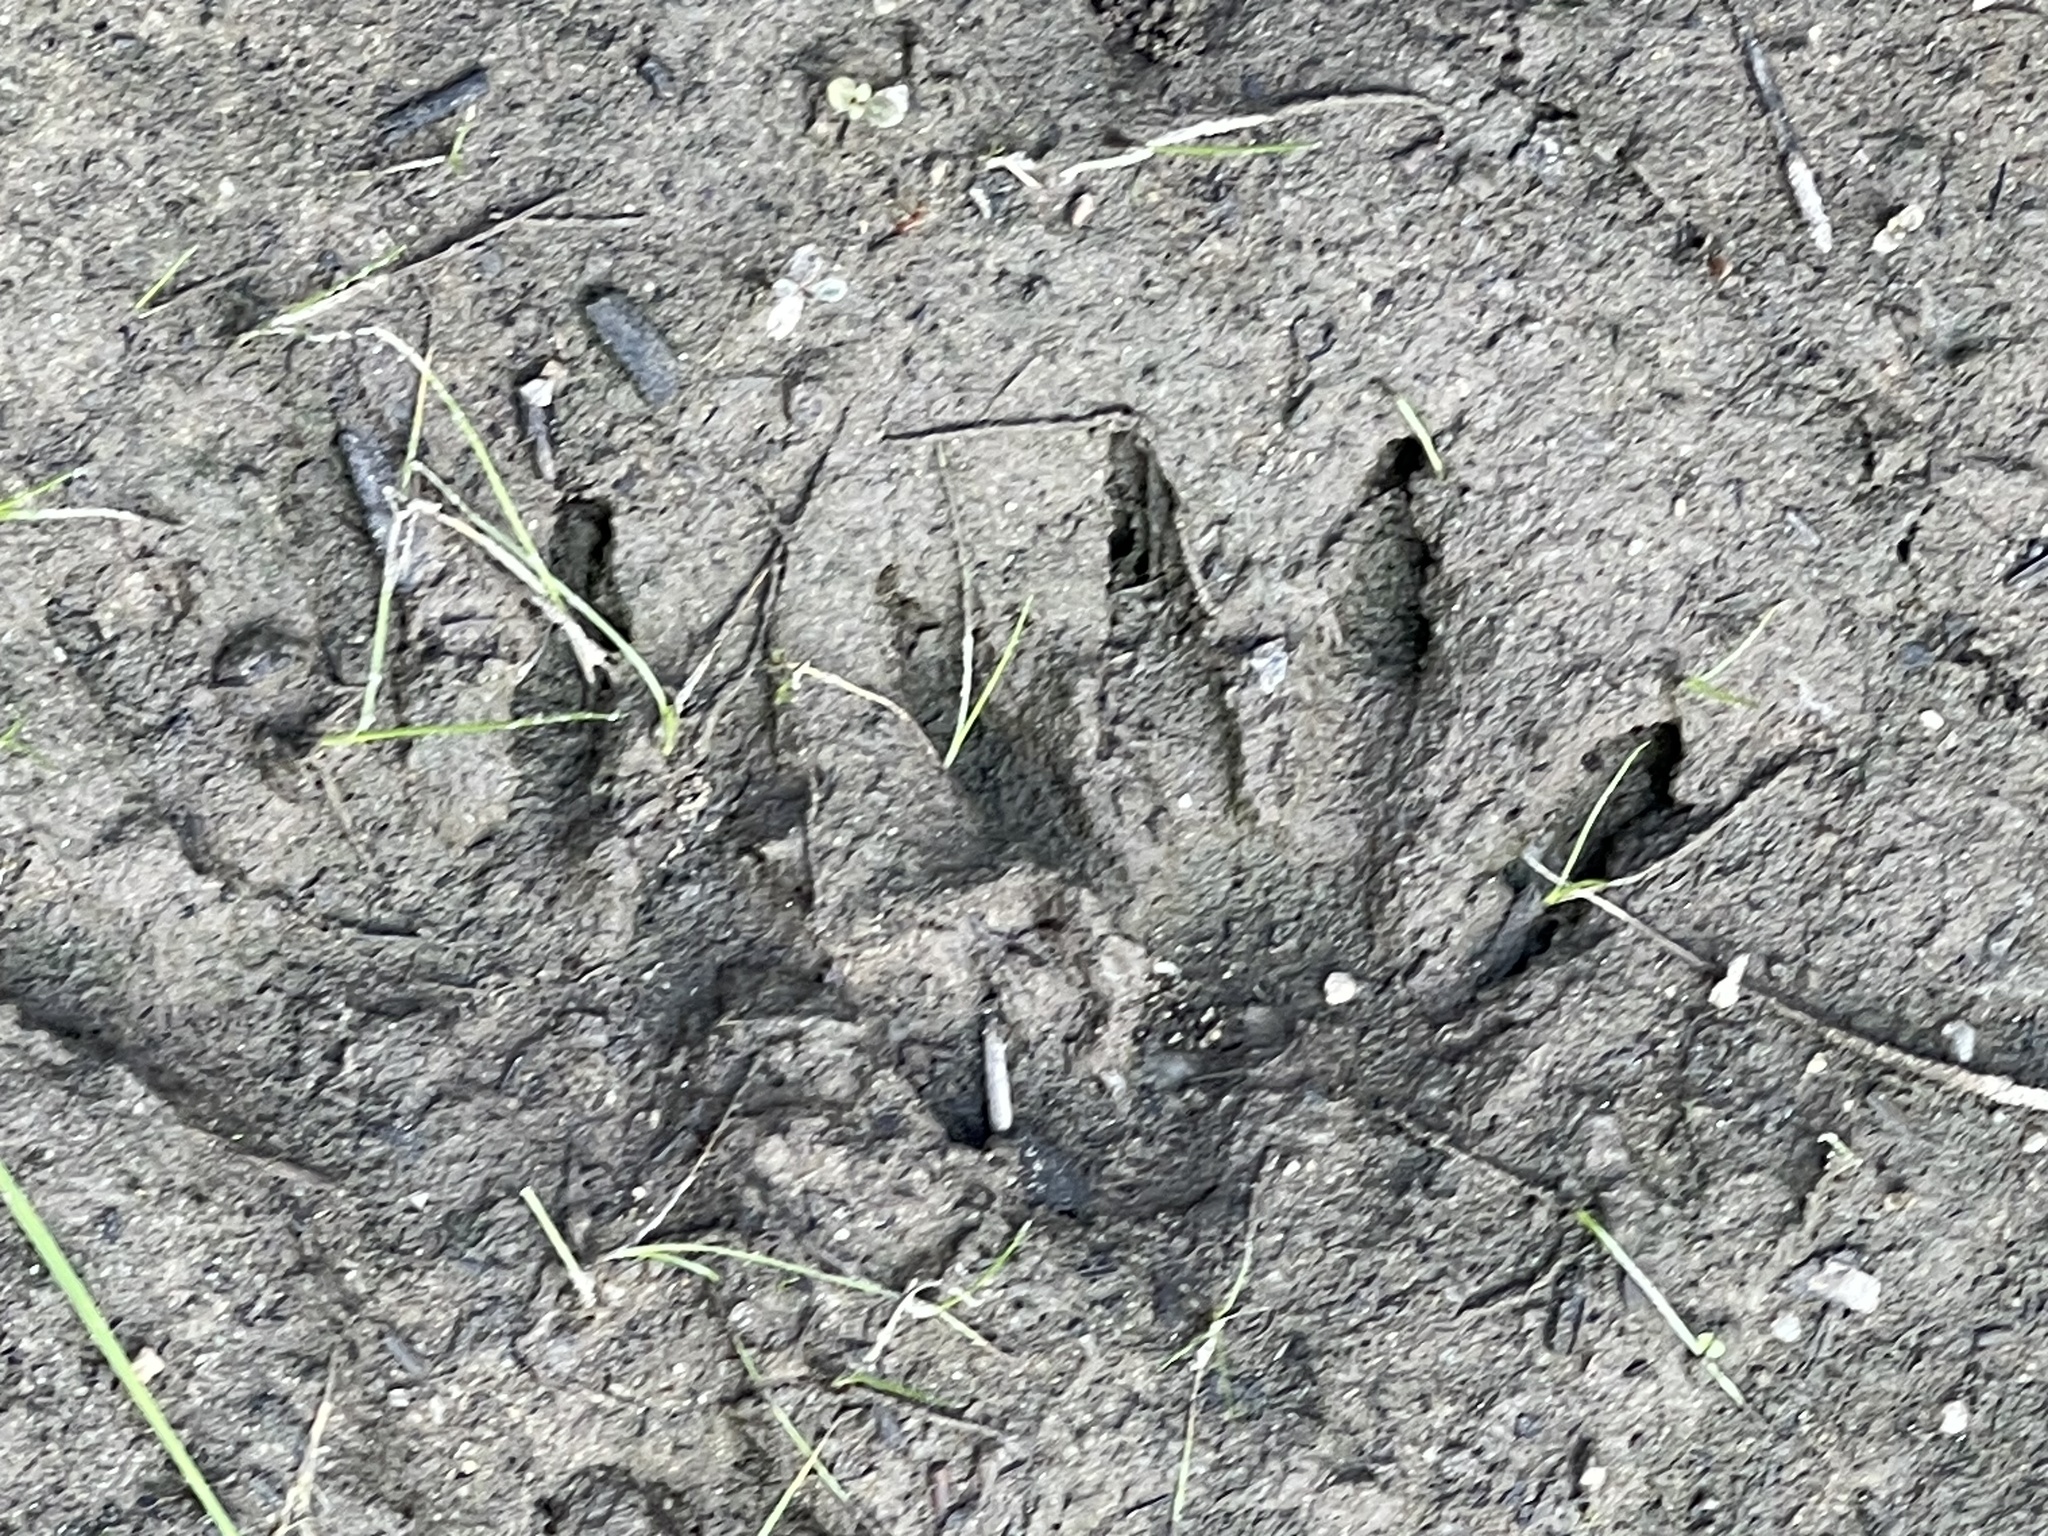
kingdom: Animalia
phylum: Chordata
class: Mammalia
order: Carnivora
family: Procyonidae
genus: Procyon
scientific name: Procyon lotor
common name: Raccoon
